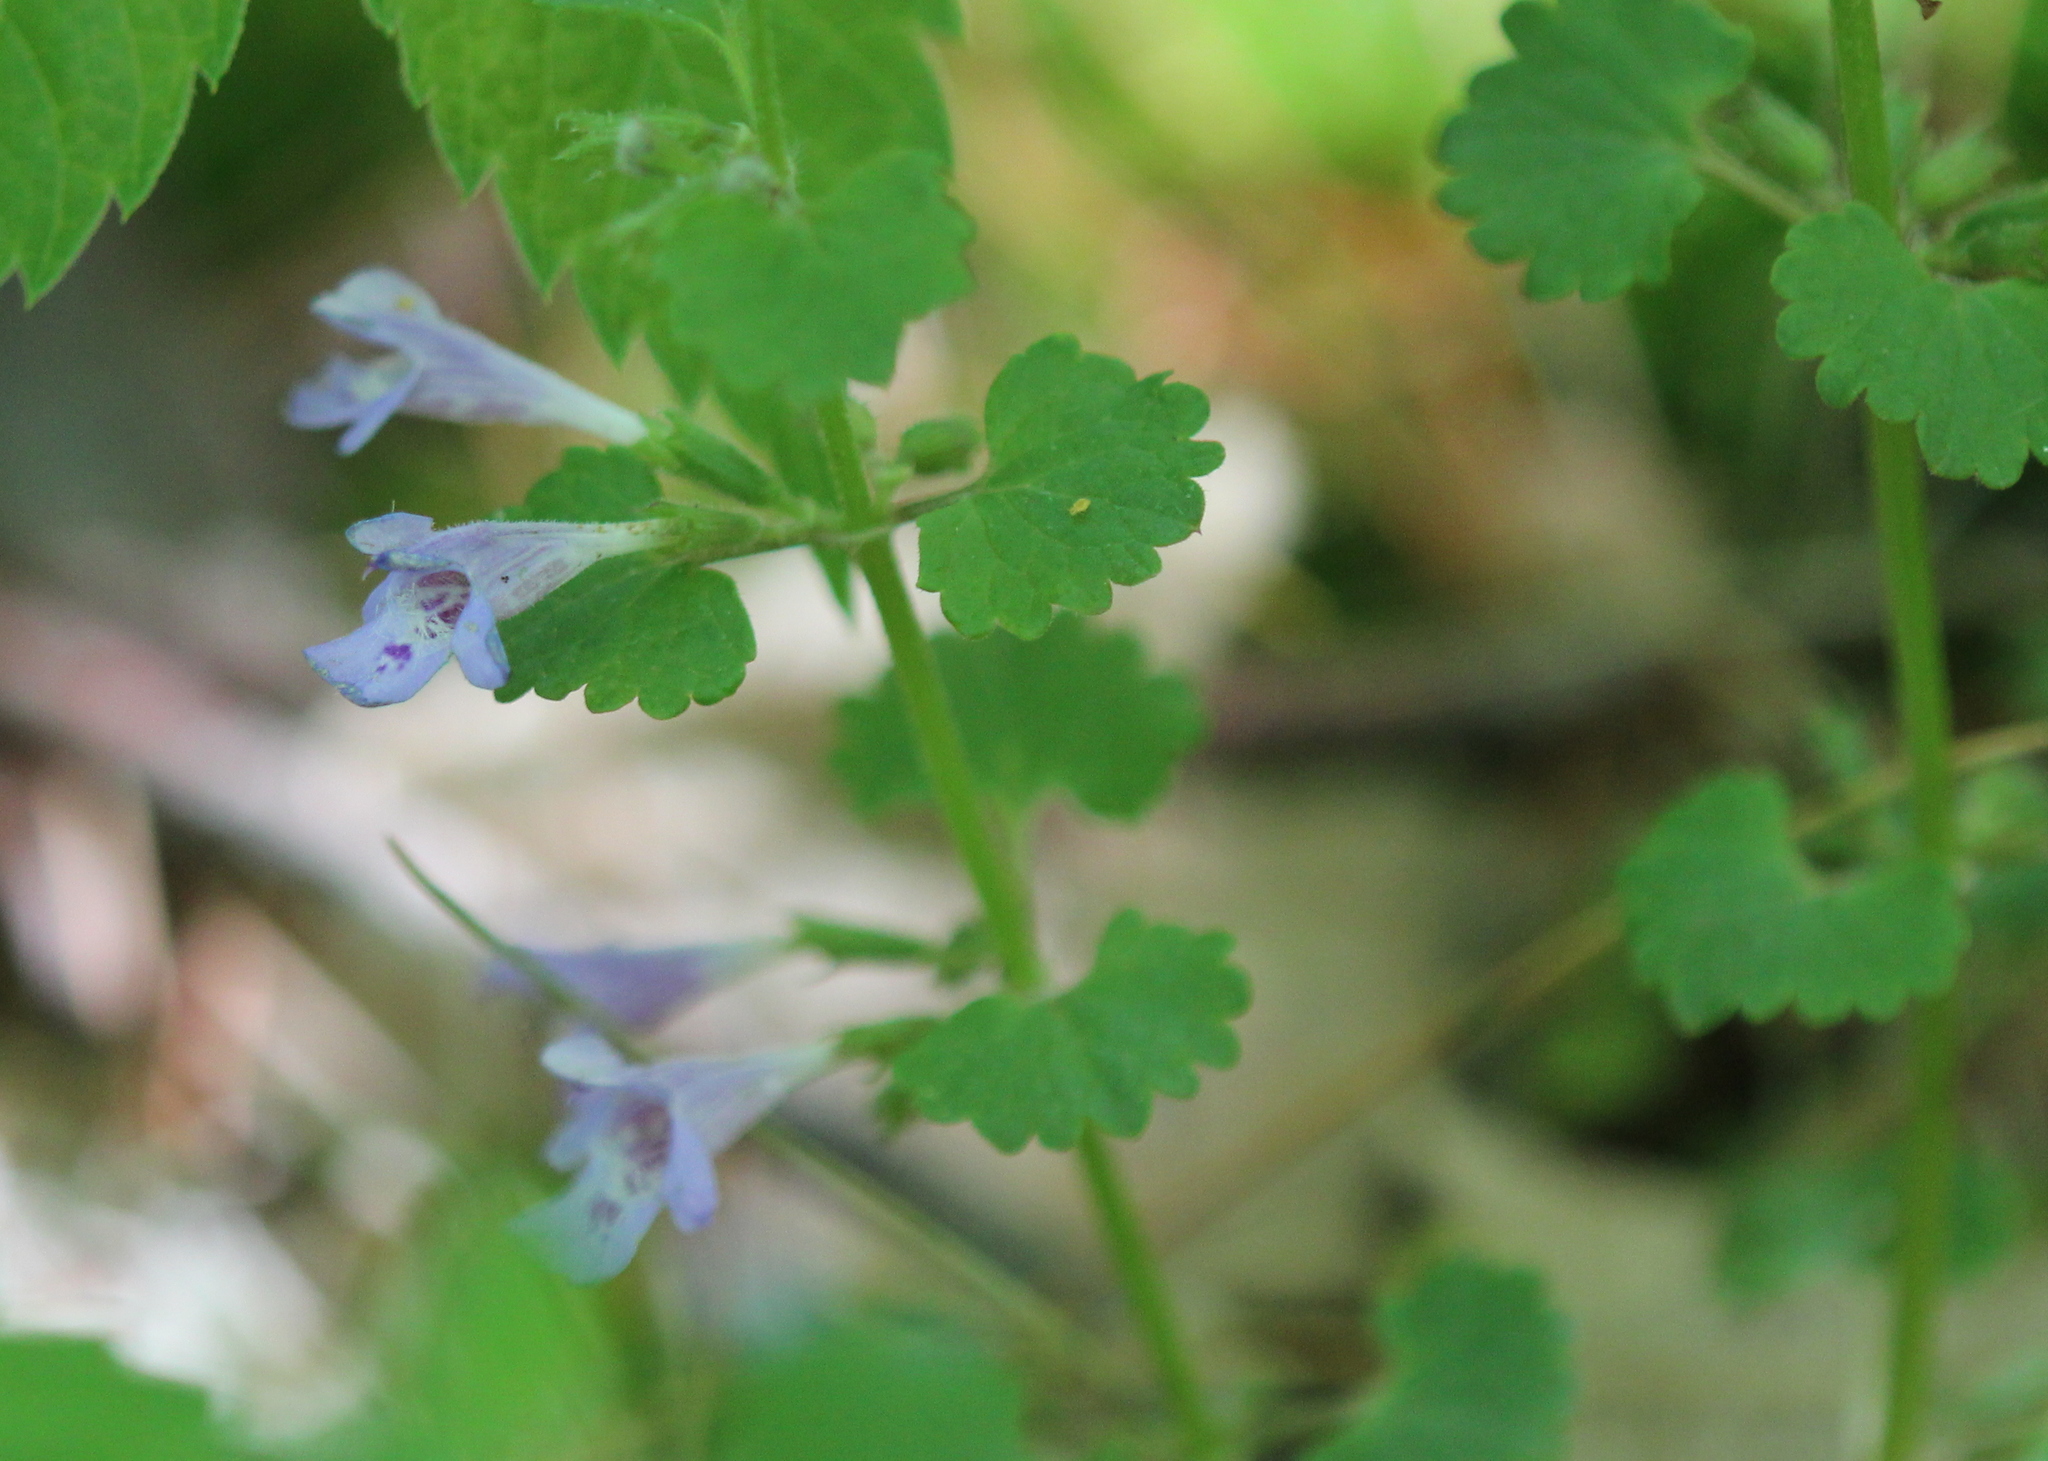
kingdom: Plantae
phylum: Tracheophyta
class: Magnoliopsida
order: Lamiales
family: Lamiaceae
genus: Glechoma
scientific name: Glechoma hederacea
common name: Ground ivy
